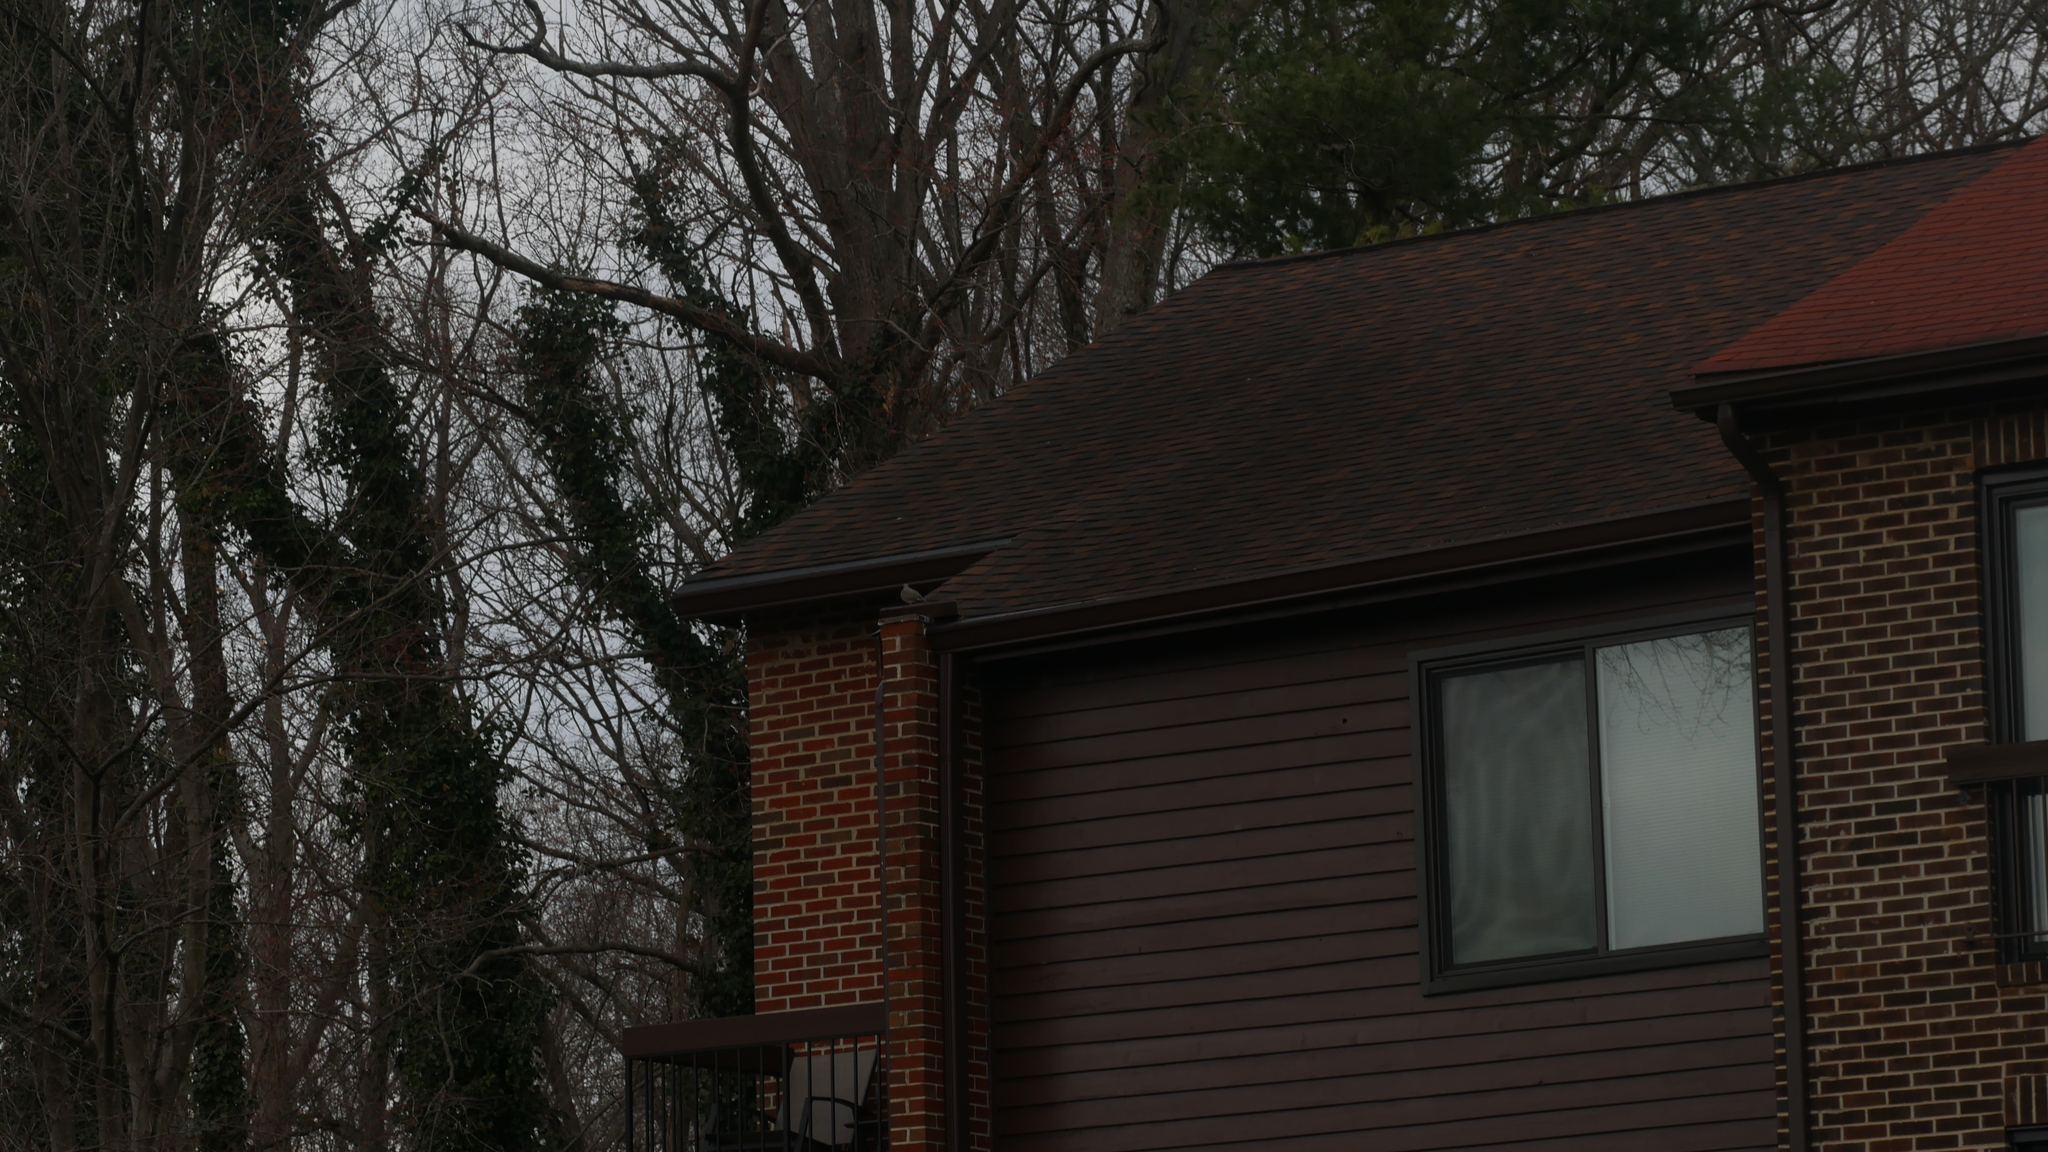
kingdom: Animalia
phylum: Chordata
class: Aves
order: Columbiformes
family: Columbidae
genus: Zenaida
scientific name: Zenaida macroura
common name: Mourning dove
